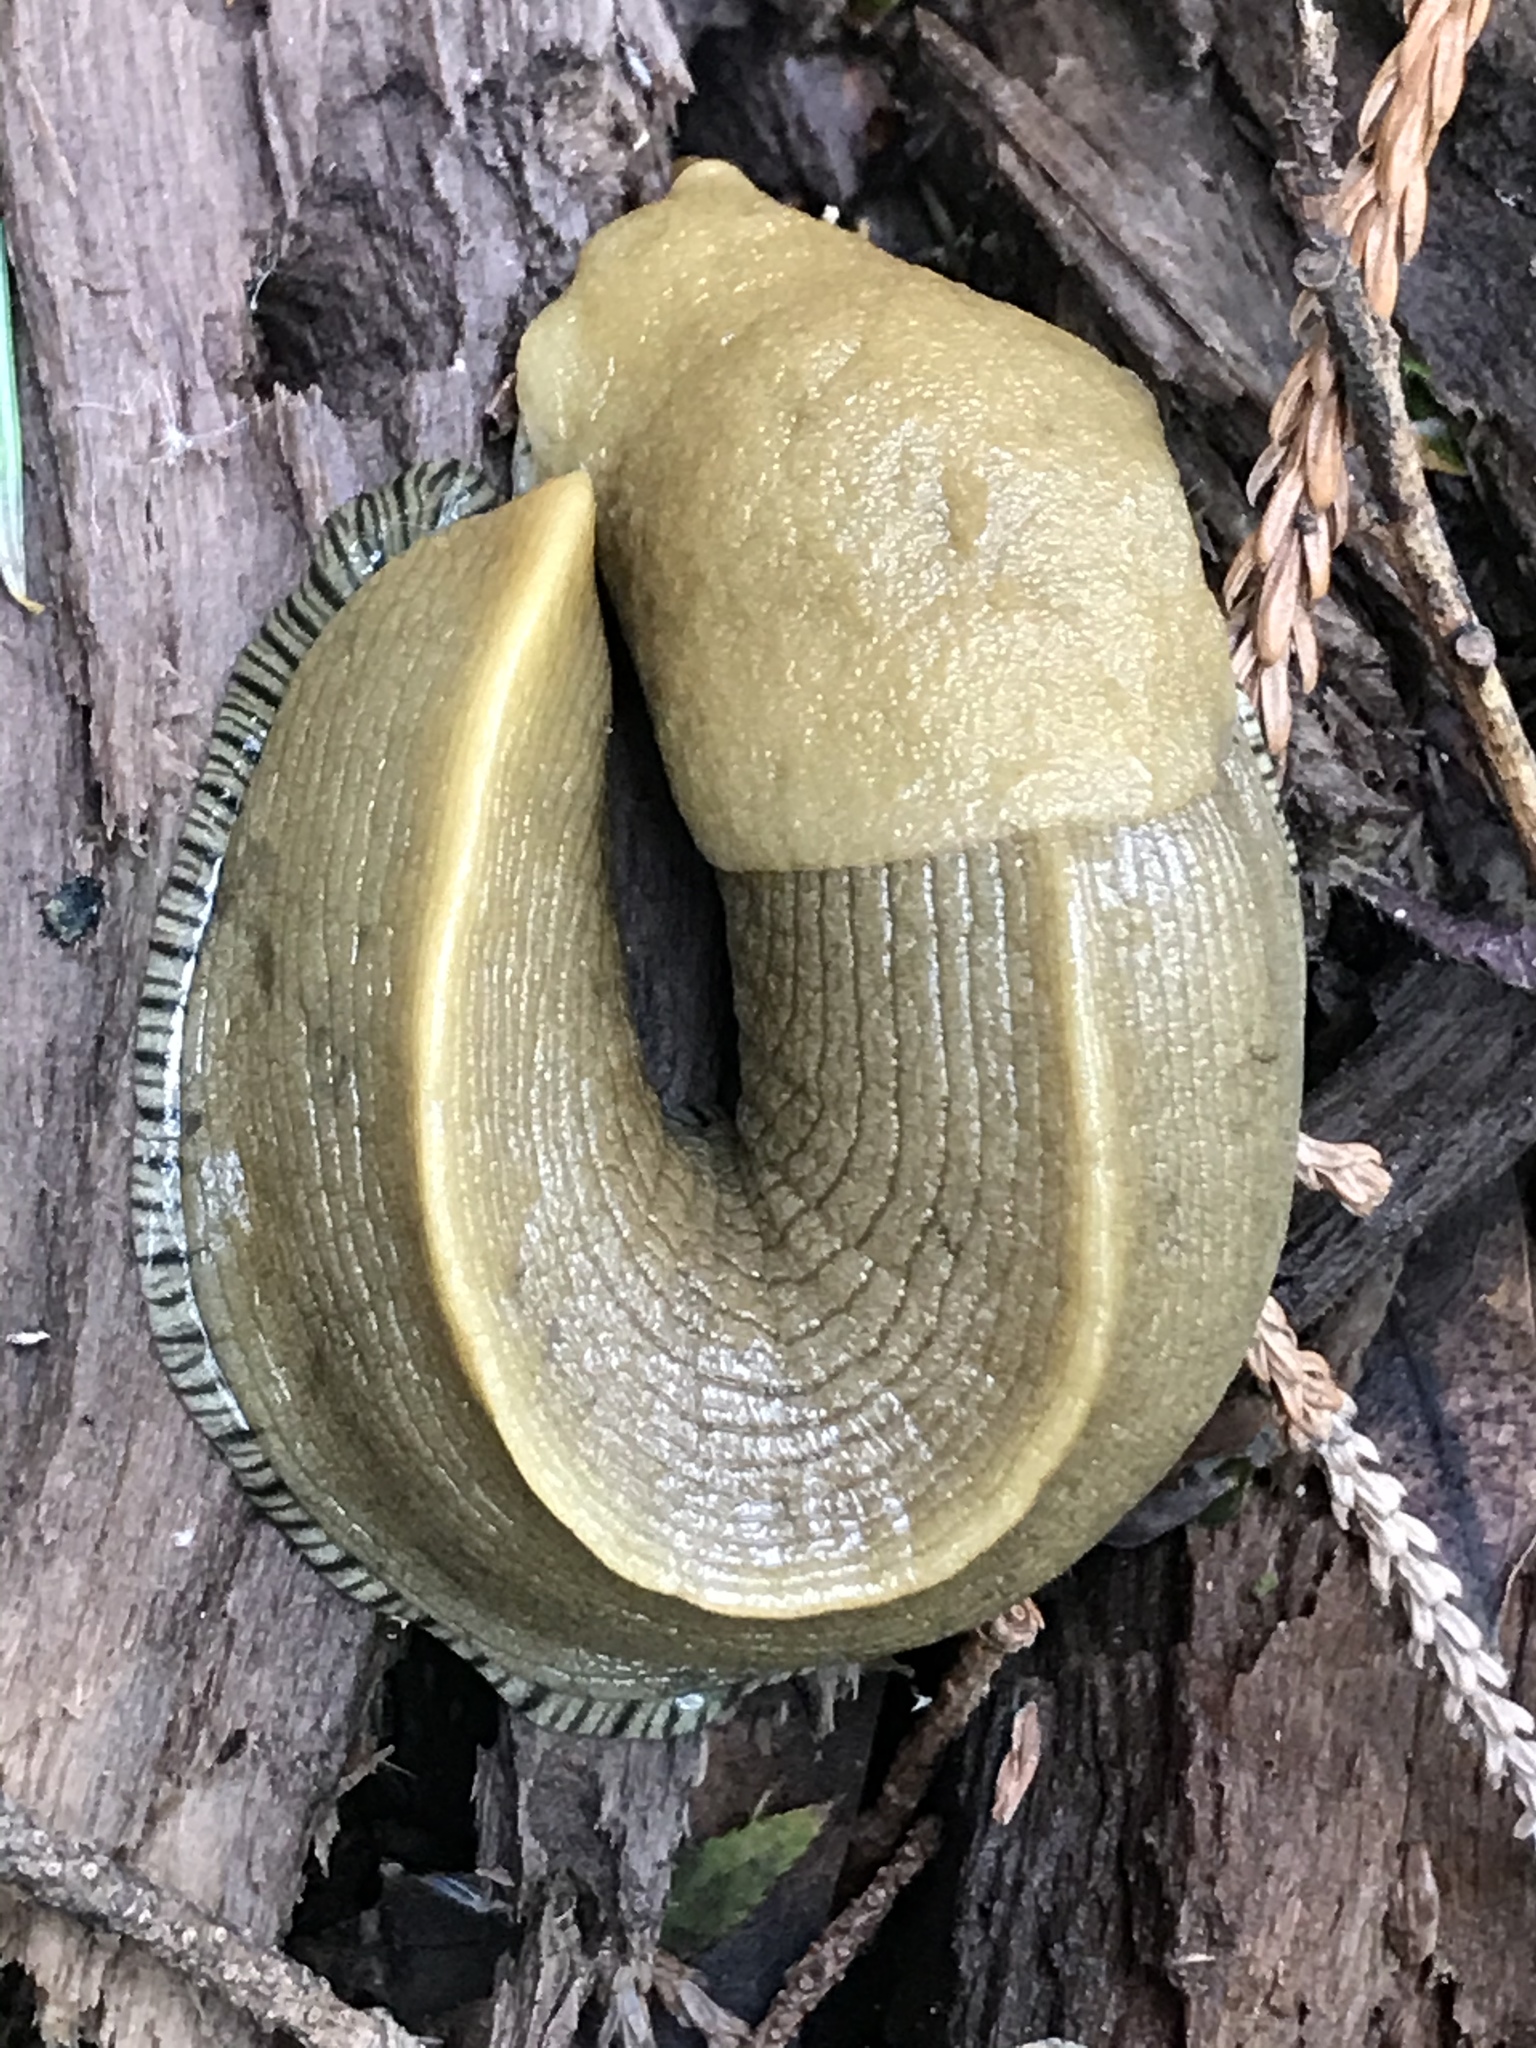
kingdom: Animalia
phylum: Mollusca
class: Gastropoda
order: Stylommatophora
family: Ariolimacidae
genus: Ariolimax
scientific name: Ariolimax buttoni
